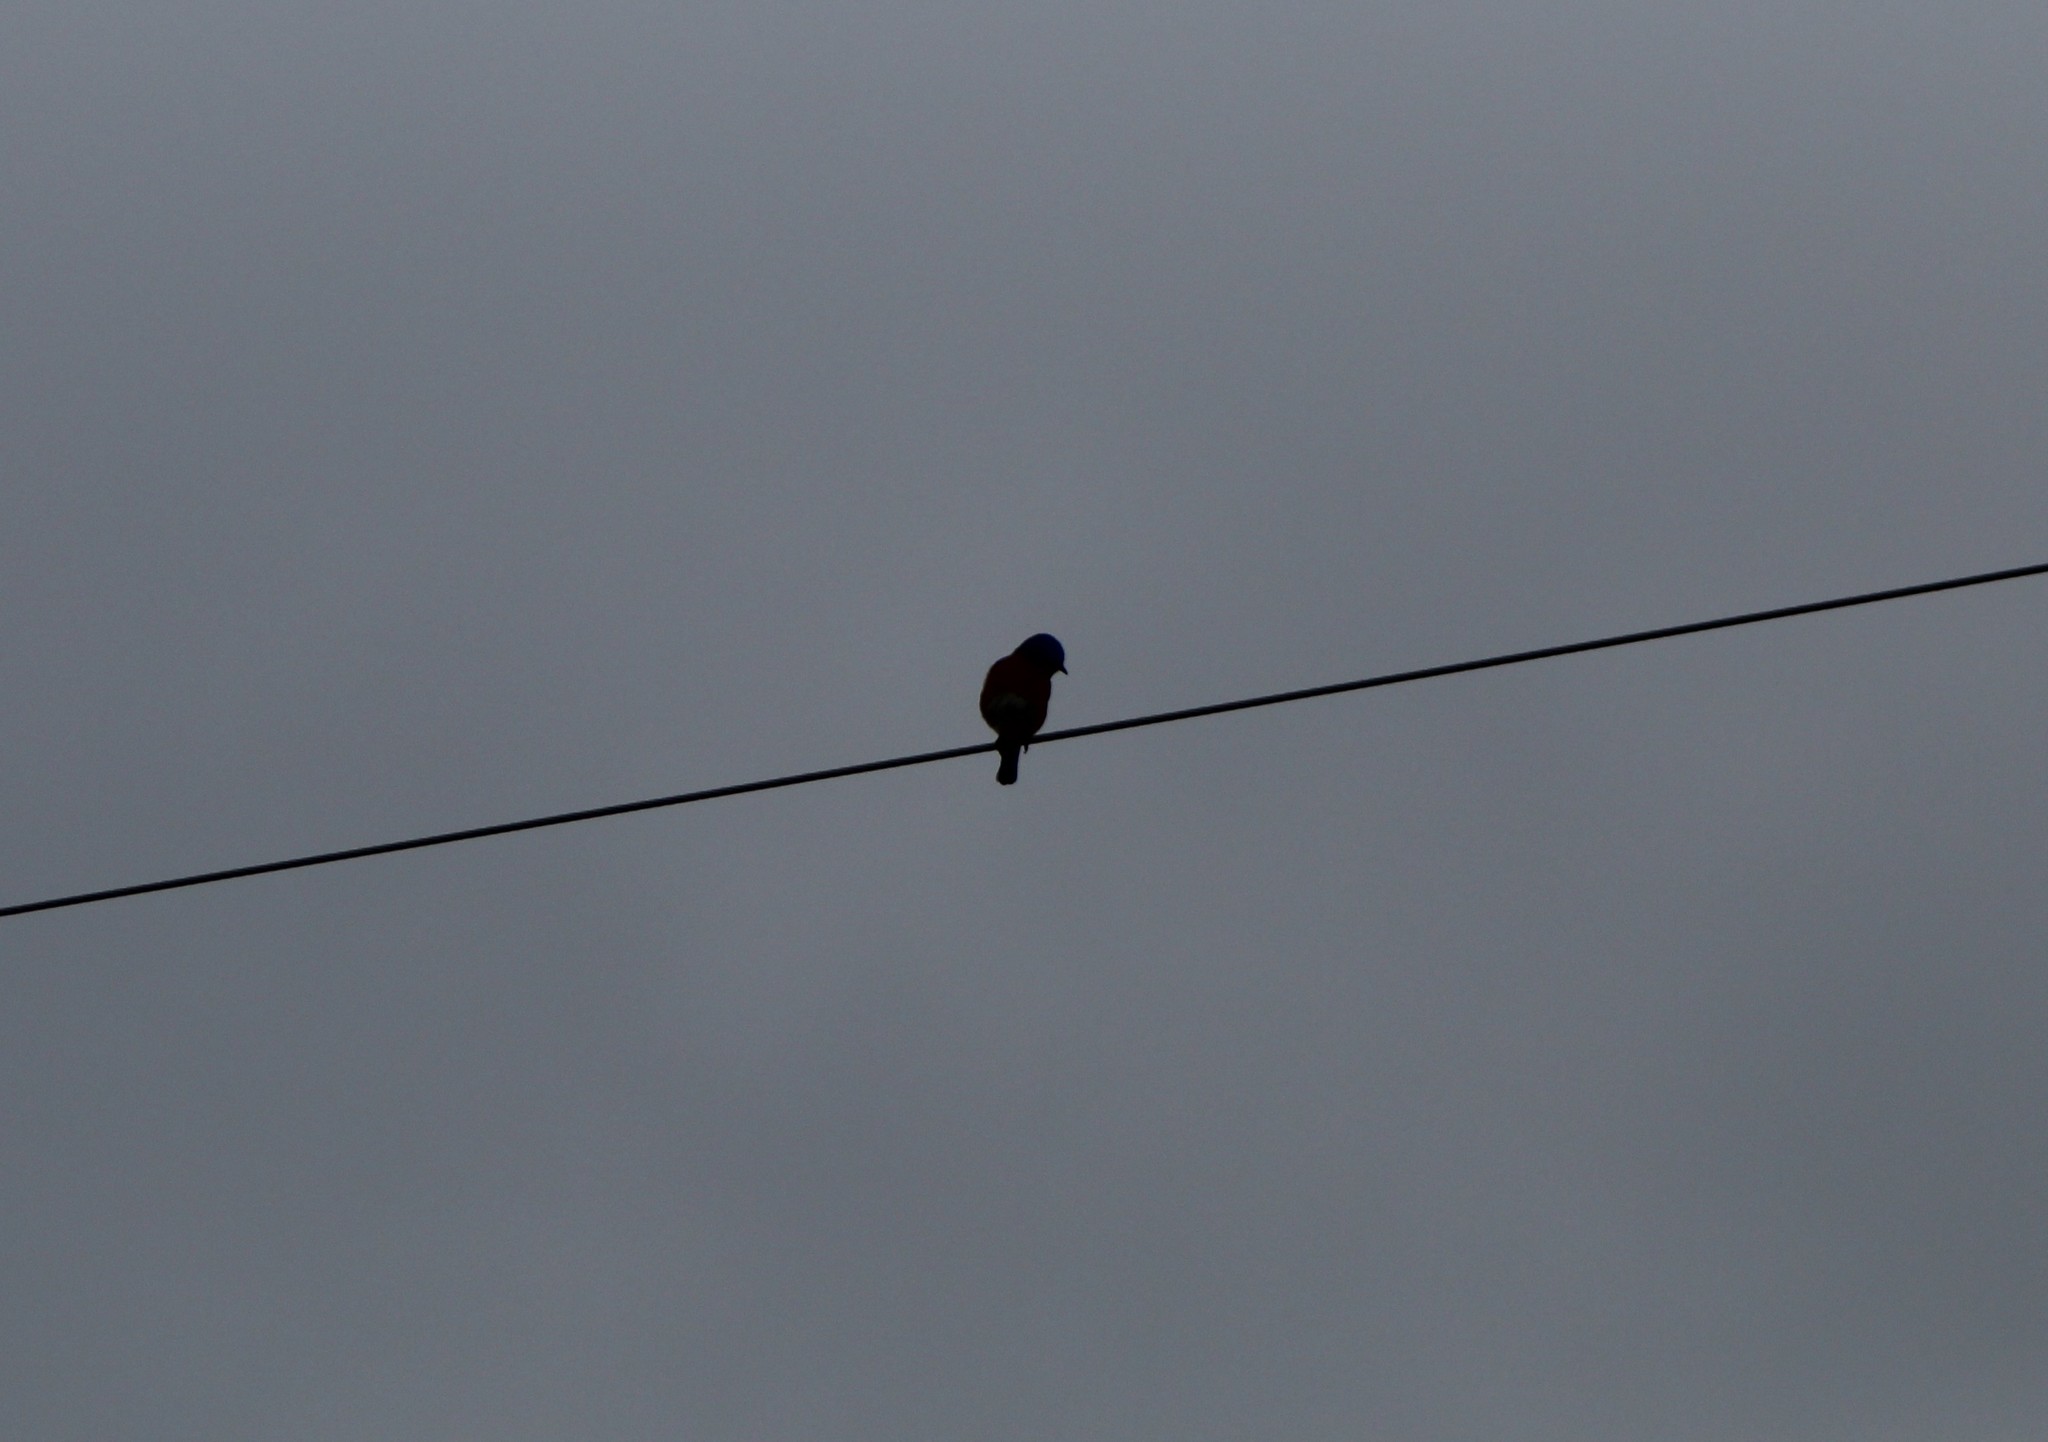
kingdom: Animalia
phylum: Chordata
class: Aves
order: Passeriformes
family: Turdidae
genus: Sialia
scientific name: Sialia sialis
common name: Eastern bluebird
